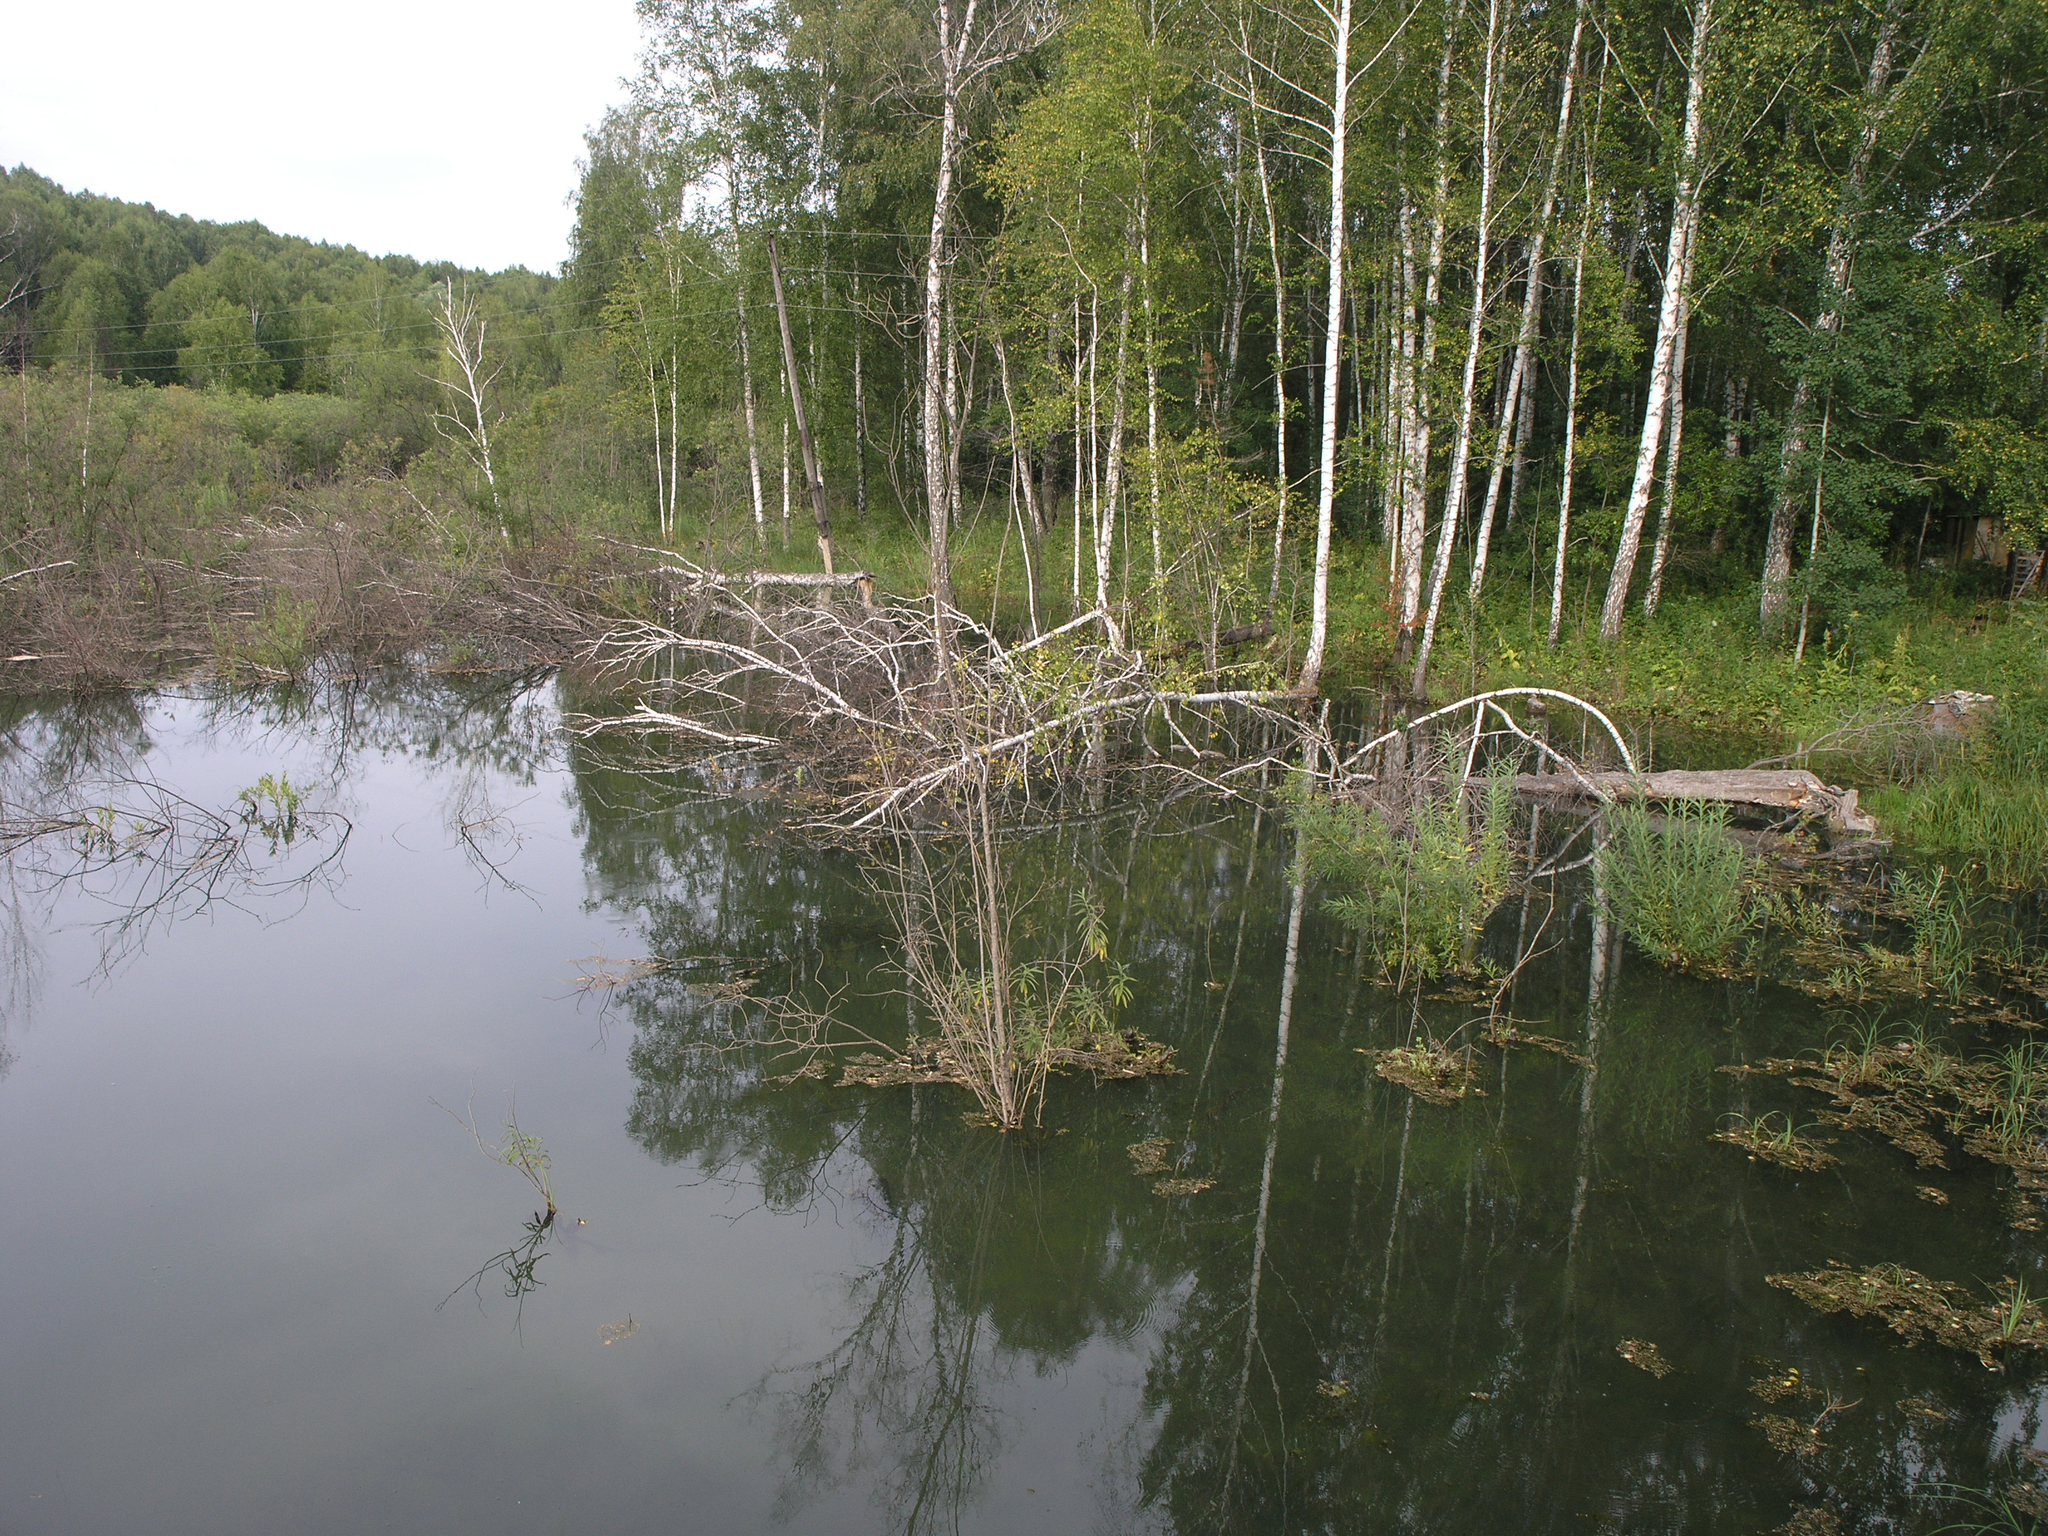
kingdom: Animalia
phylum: Chordata
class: Mammalia
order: Rodentia
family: Castoridae
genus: Castor
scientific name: Castor fiber
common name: Eurasian beaver
